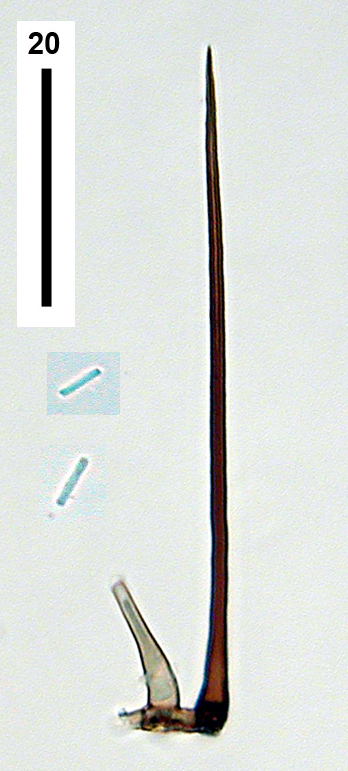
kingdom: Fungi
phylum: Ascomycota
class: Leotiomycetes
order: Helotiales
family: Pezizellaceae
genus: Chaetochalara
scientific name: Chaetochalara africana
